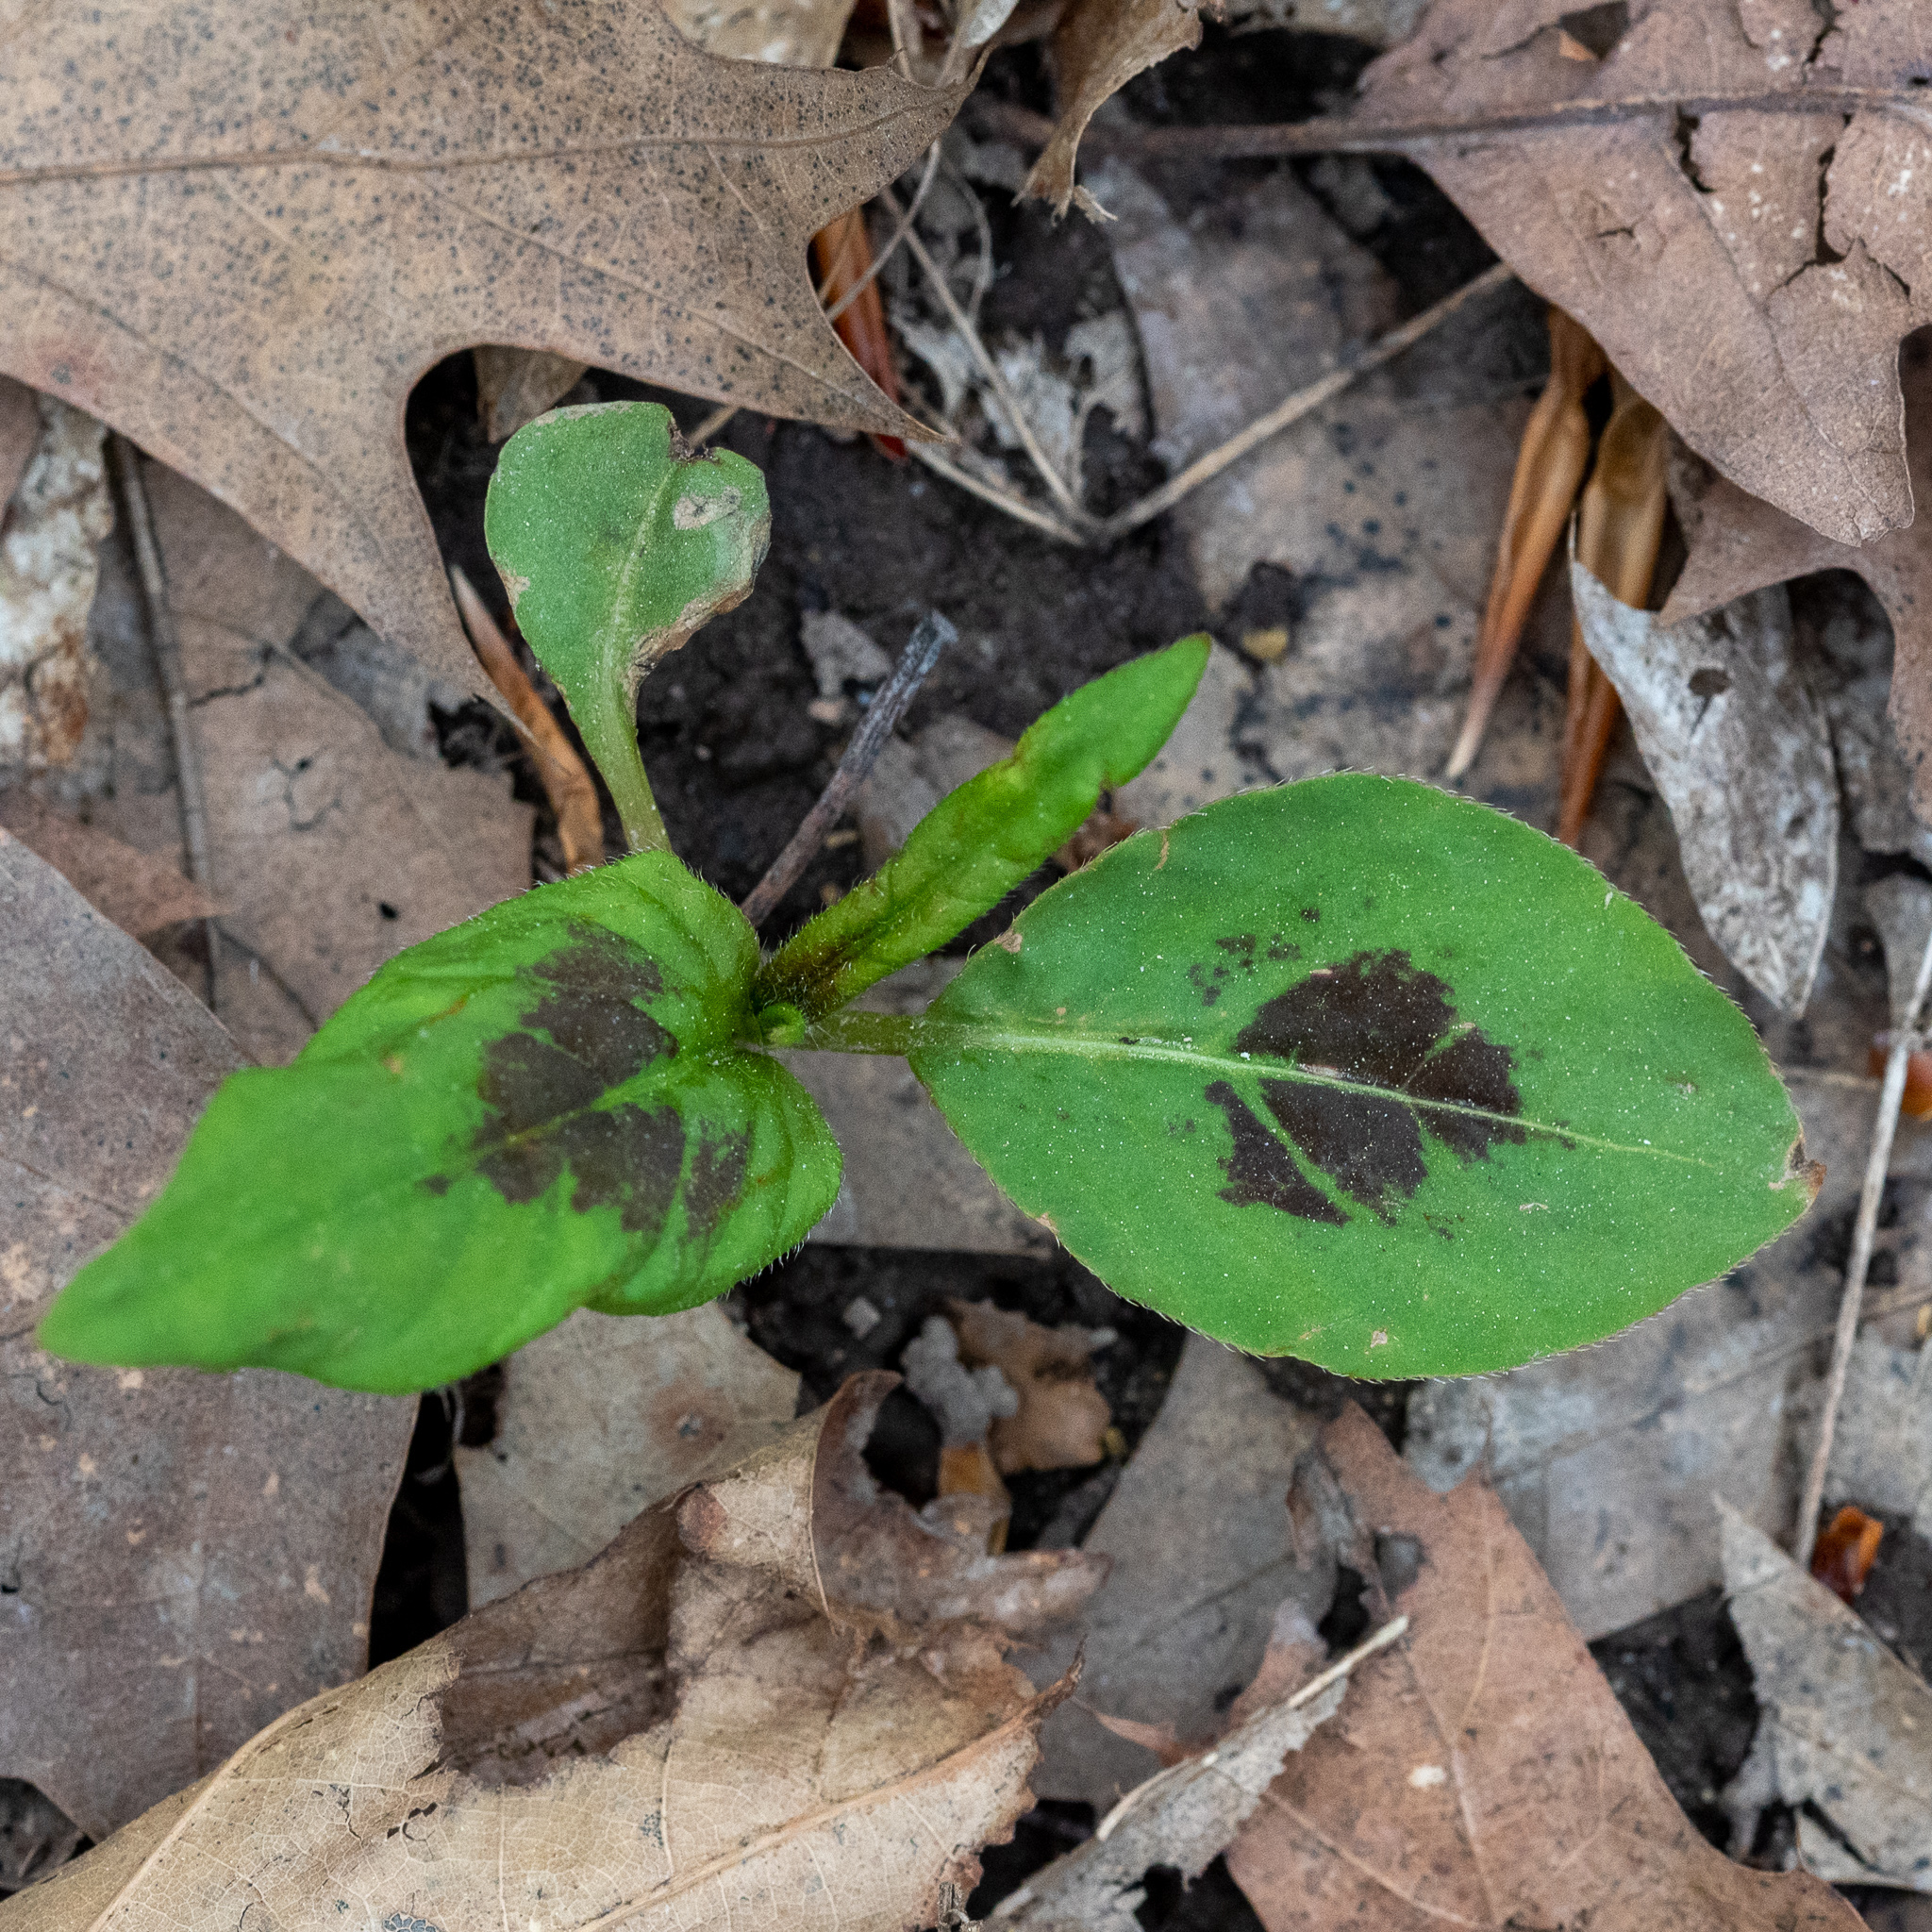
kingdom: Plantae
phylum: Tracheophyta
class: Magnoliopsida
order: Caryophyllales
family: Polygonaceae
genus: Persicaria
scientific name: Persicaria virginiana
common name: Jumpseed
